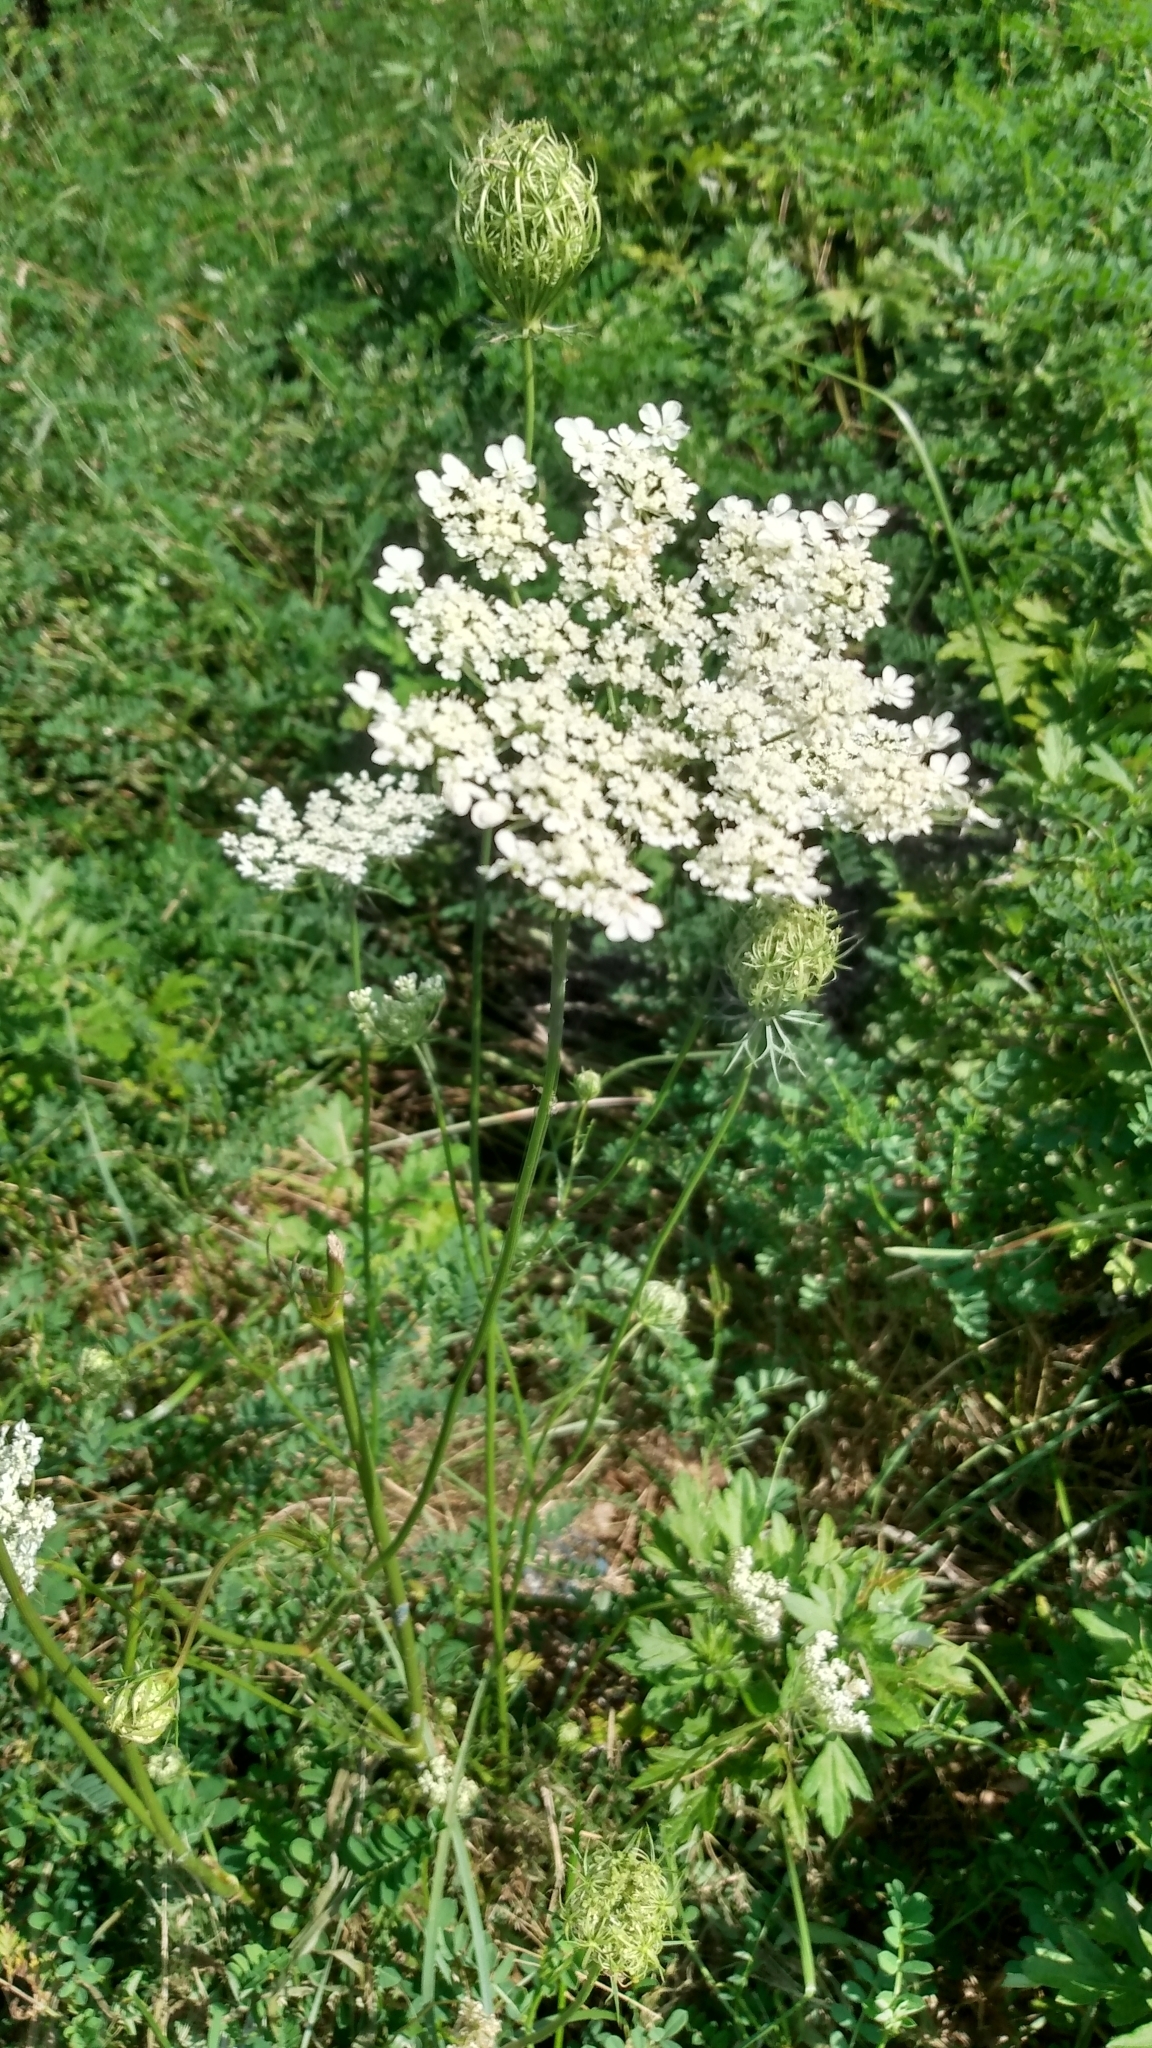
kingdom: Plantae
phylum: Tracheophyta
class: Magnoliopsida
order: Apiales
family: Apiaceae
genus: Daucus
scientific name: Daucus carota
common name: Wild carrot
